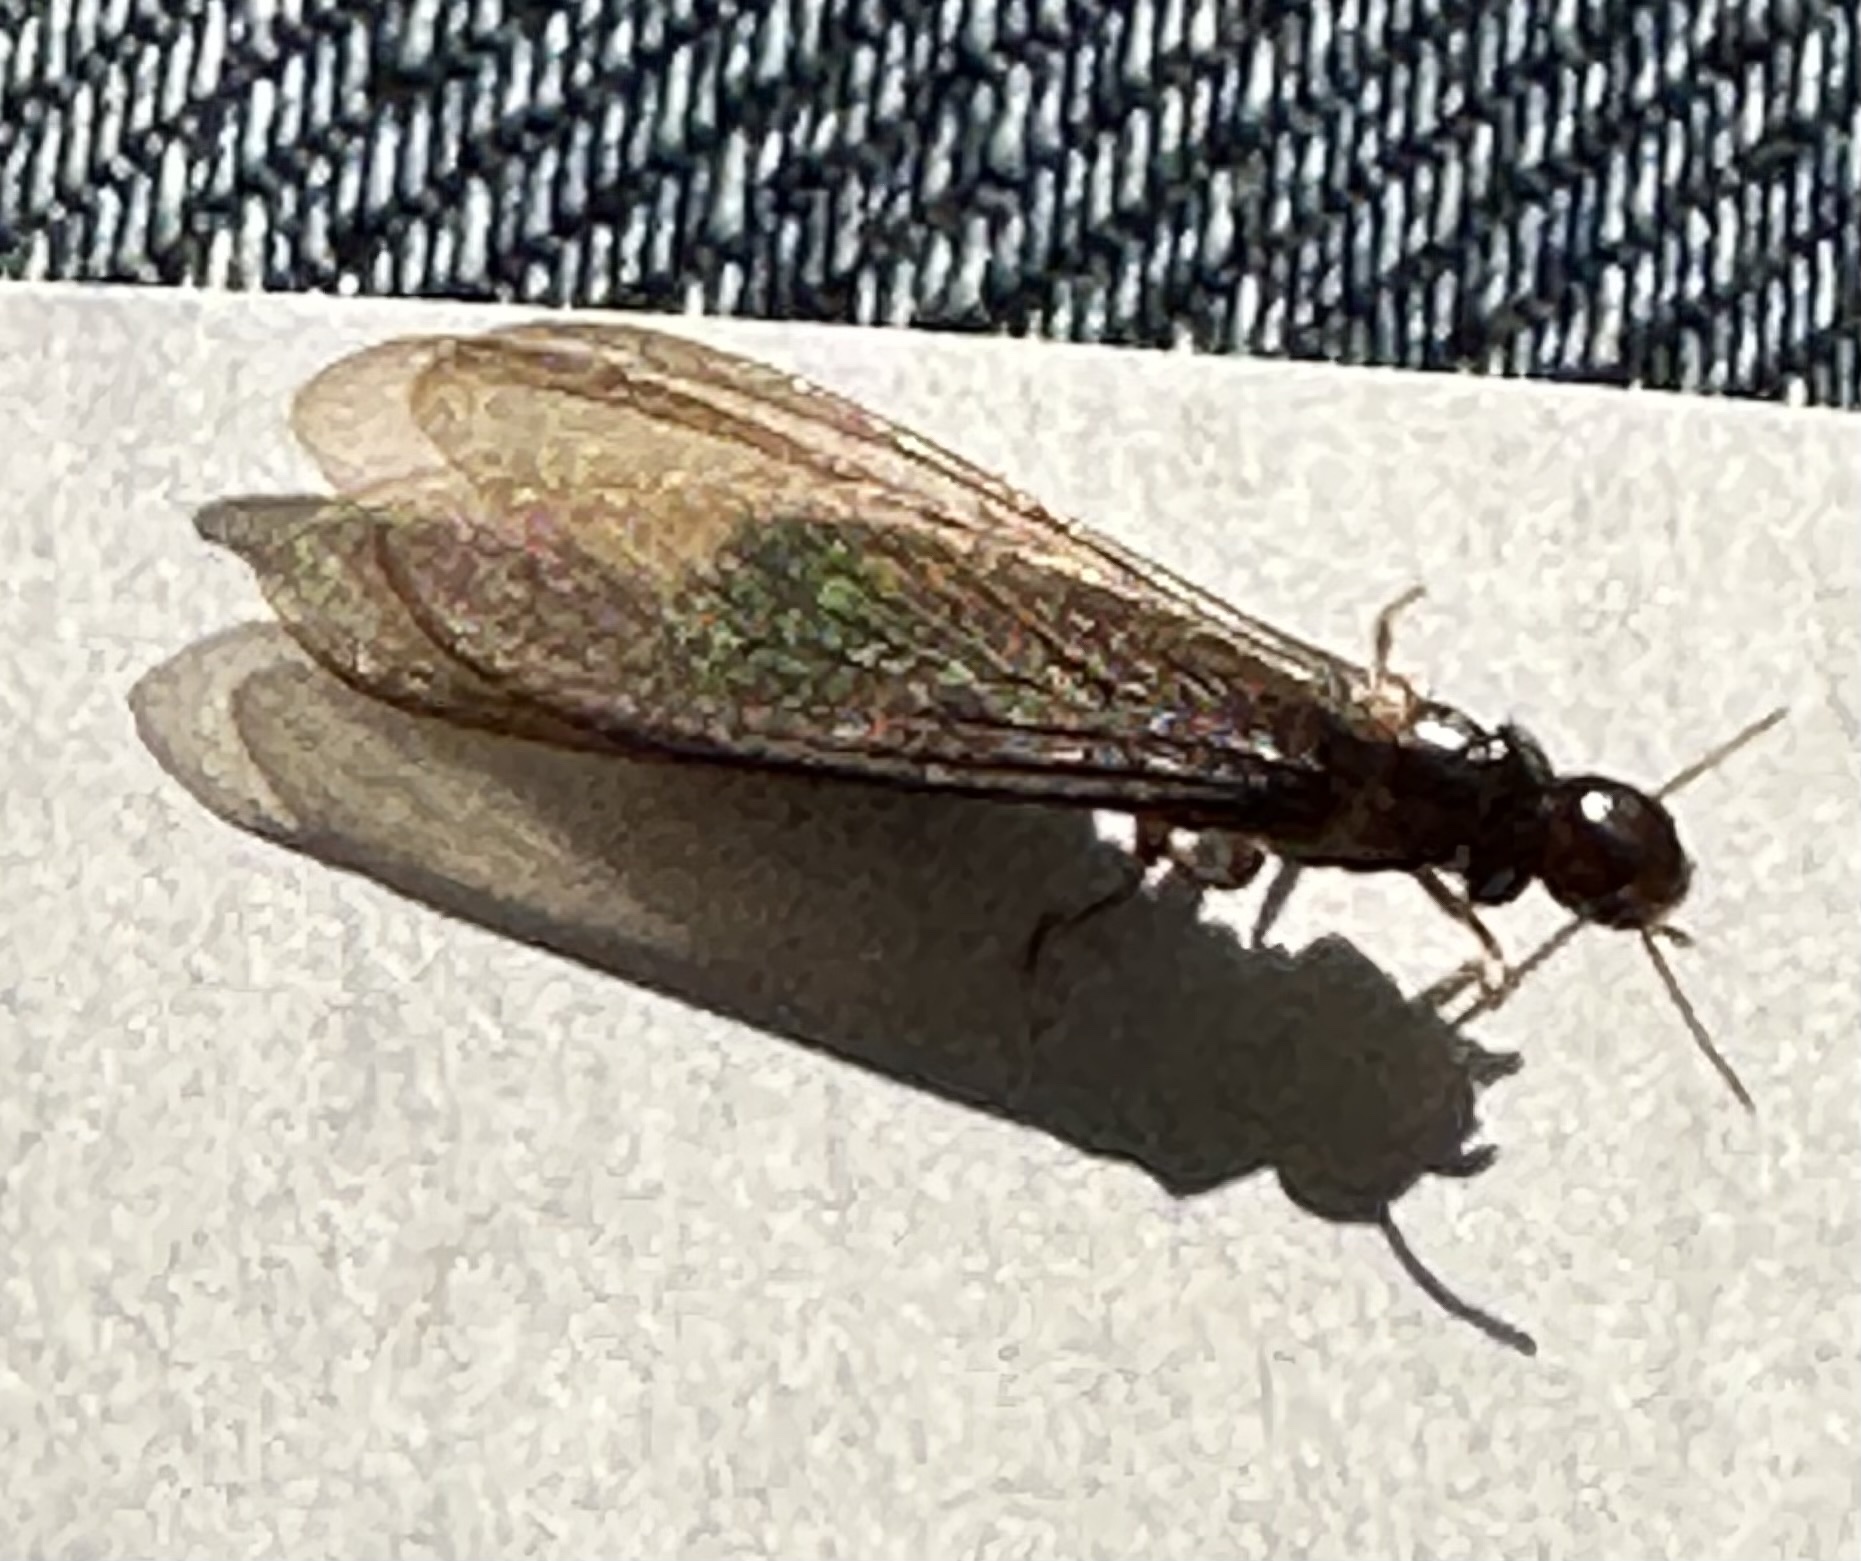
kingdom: Animalia
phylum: Arthropoda
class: Insecta
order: Blattodea
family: Kalotermitidae
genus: Incisitermes
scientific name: Incisitermes minor
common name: Termite
